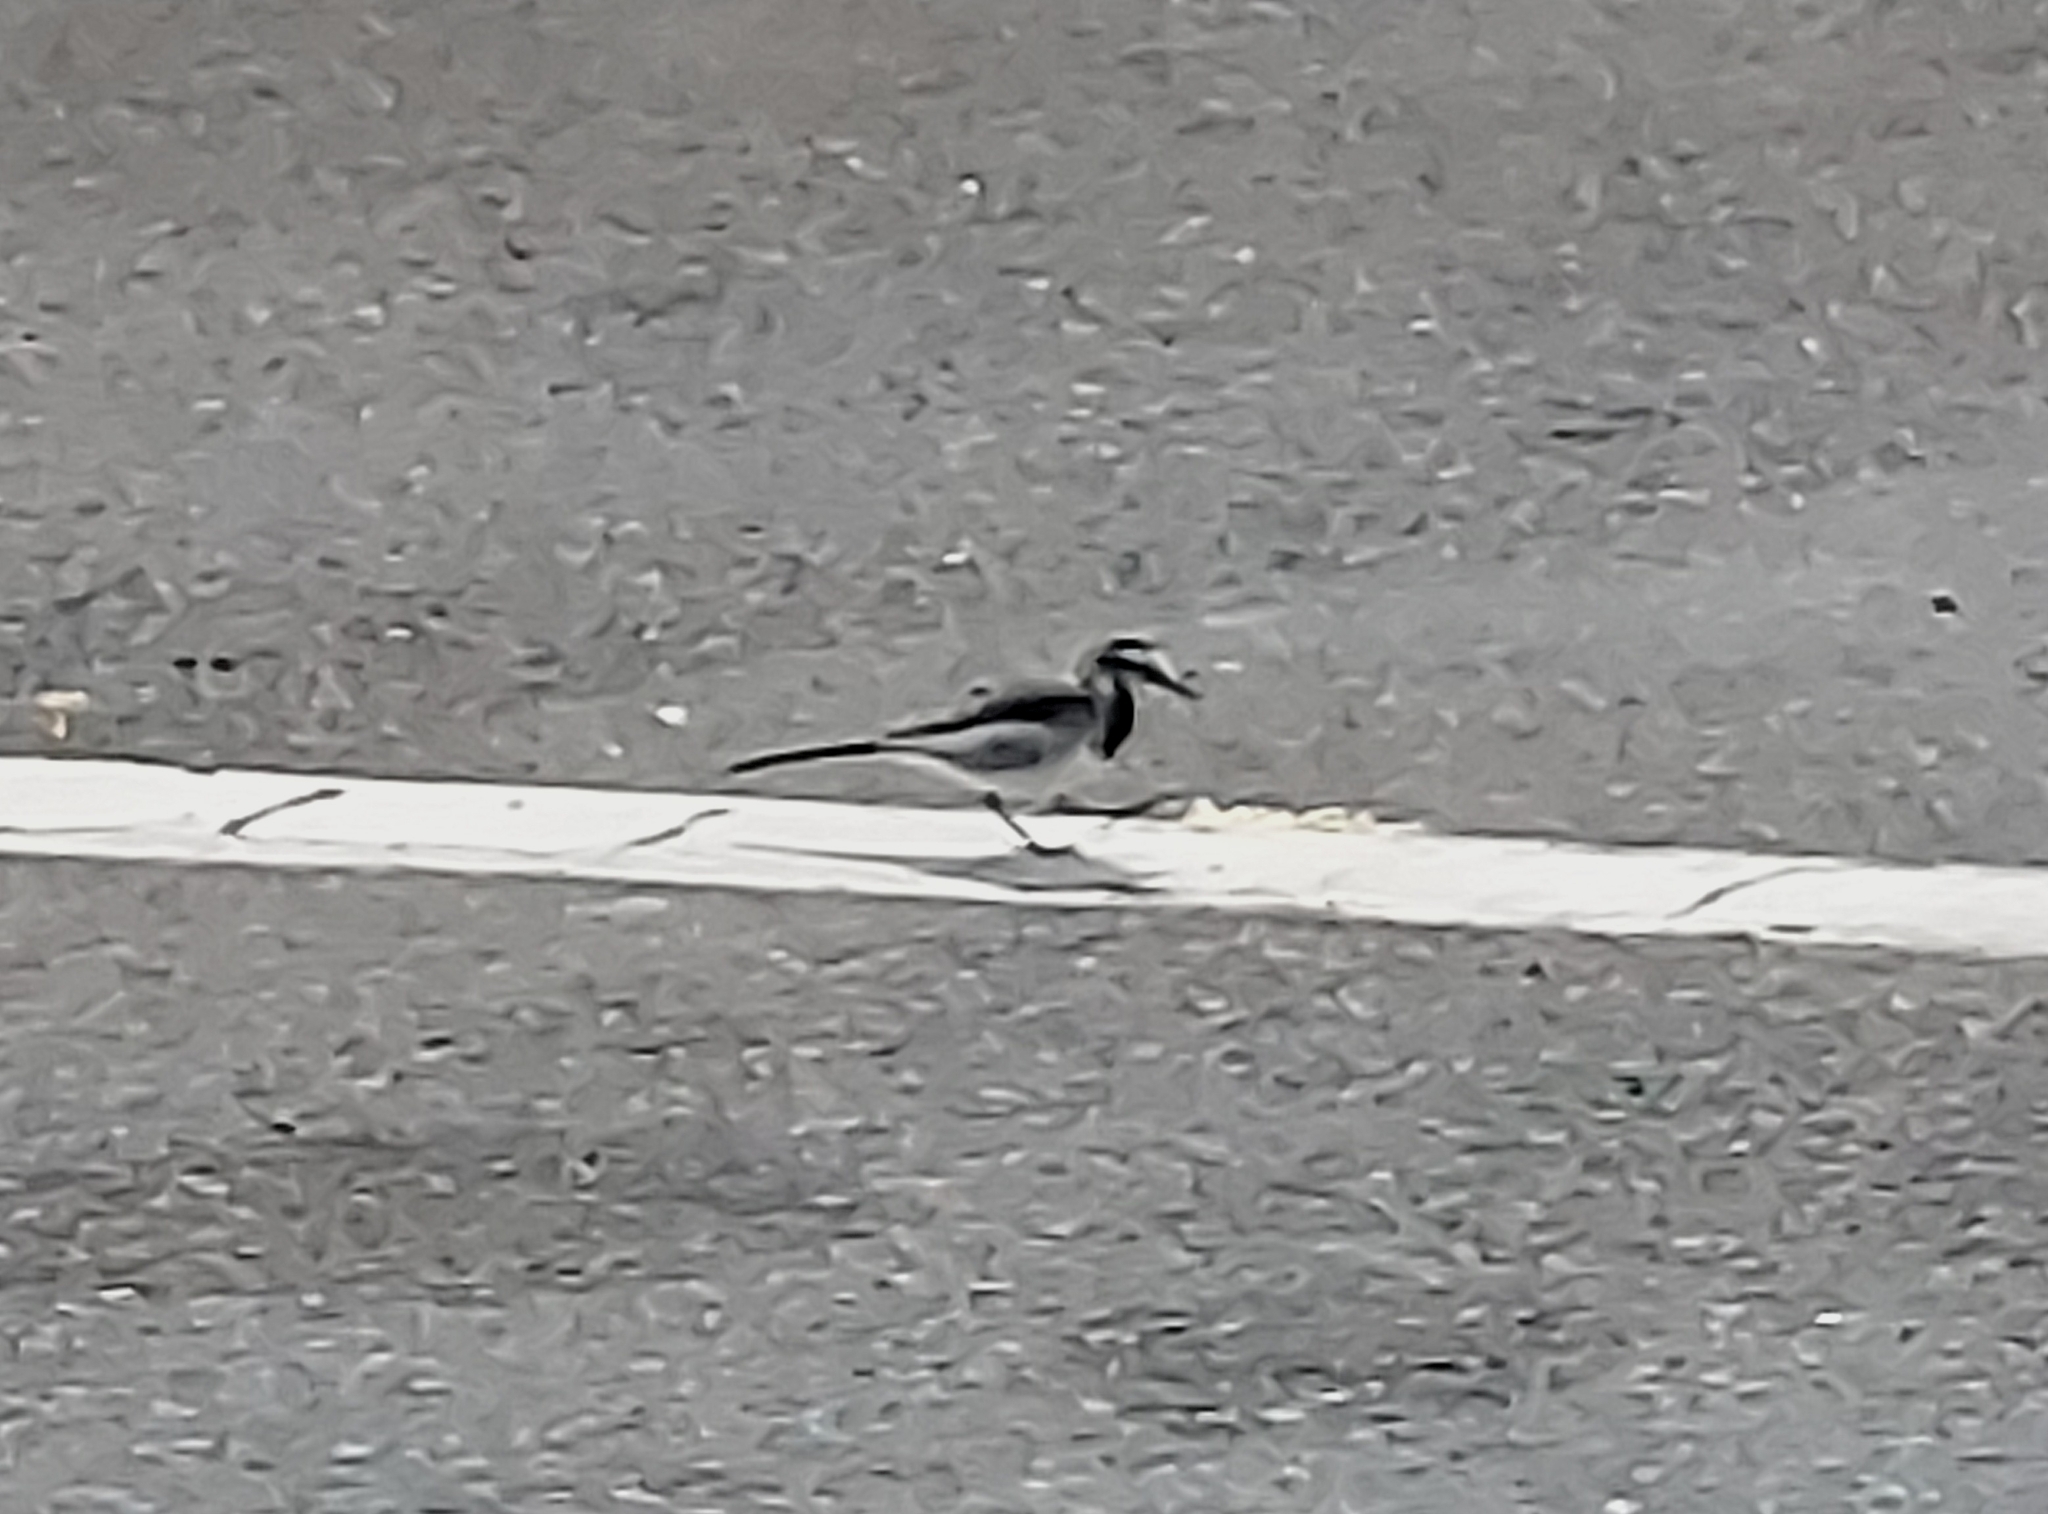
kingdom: Animalia
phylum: Chordata
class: Aves
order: Passeriformes
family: Motacillidae
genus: Motacilla
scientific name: Motacilla alba
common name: White wagtail
